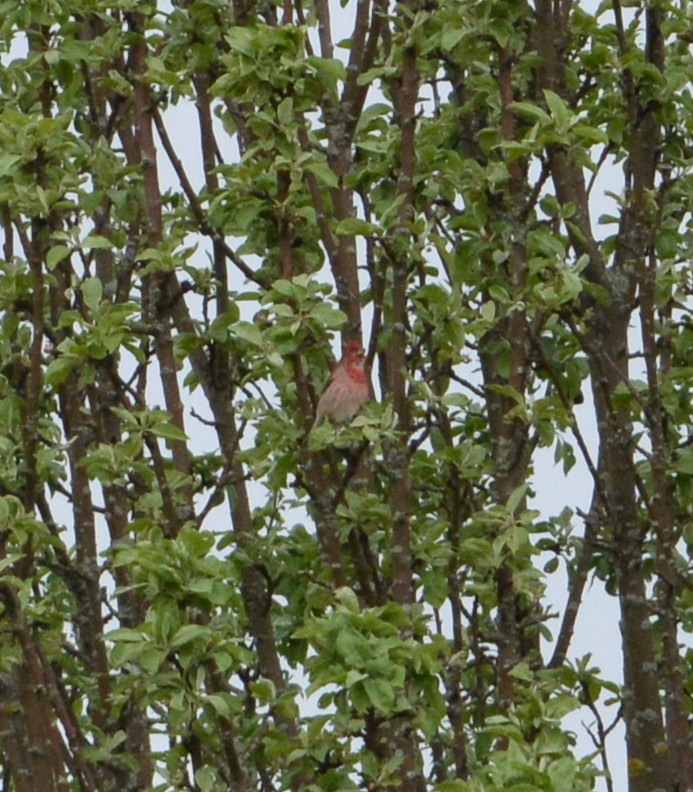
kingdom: Animalia
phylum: Chordata
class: Aves
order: Passeriformes
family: Fringillidae
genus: Carpodacus
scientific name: Carpodacus erythrinus
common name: Common rosefinch
